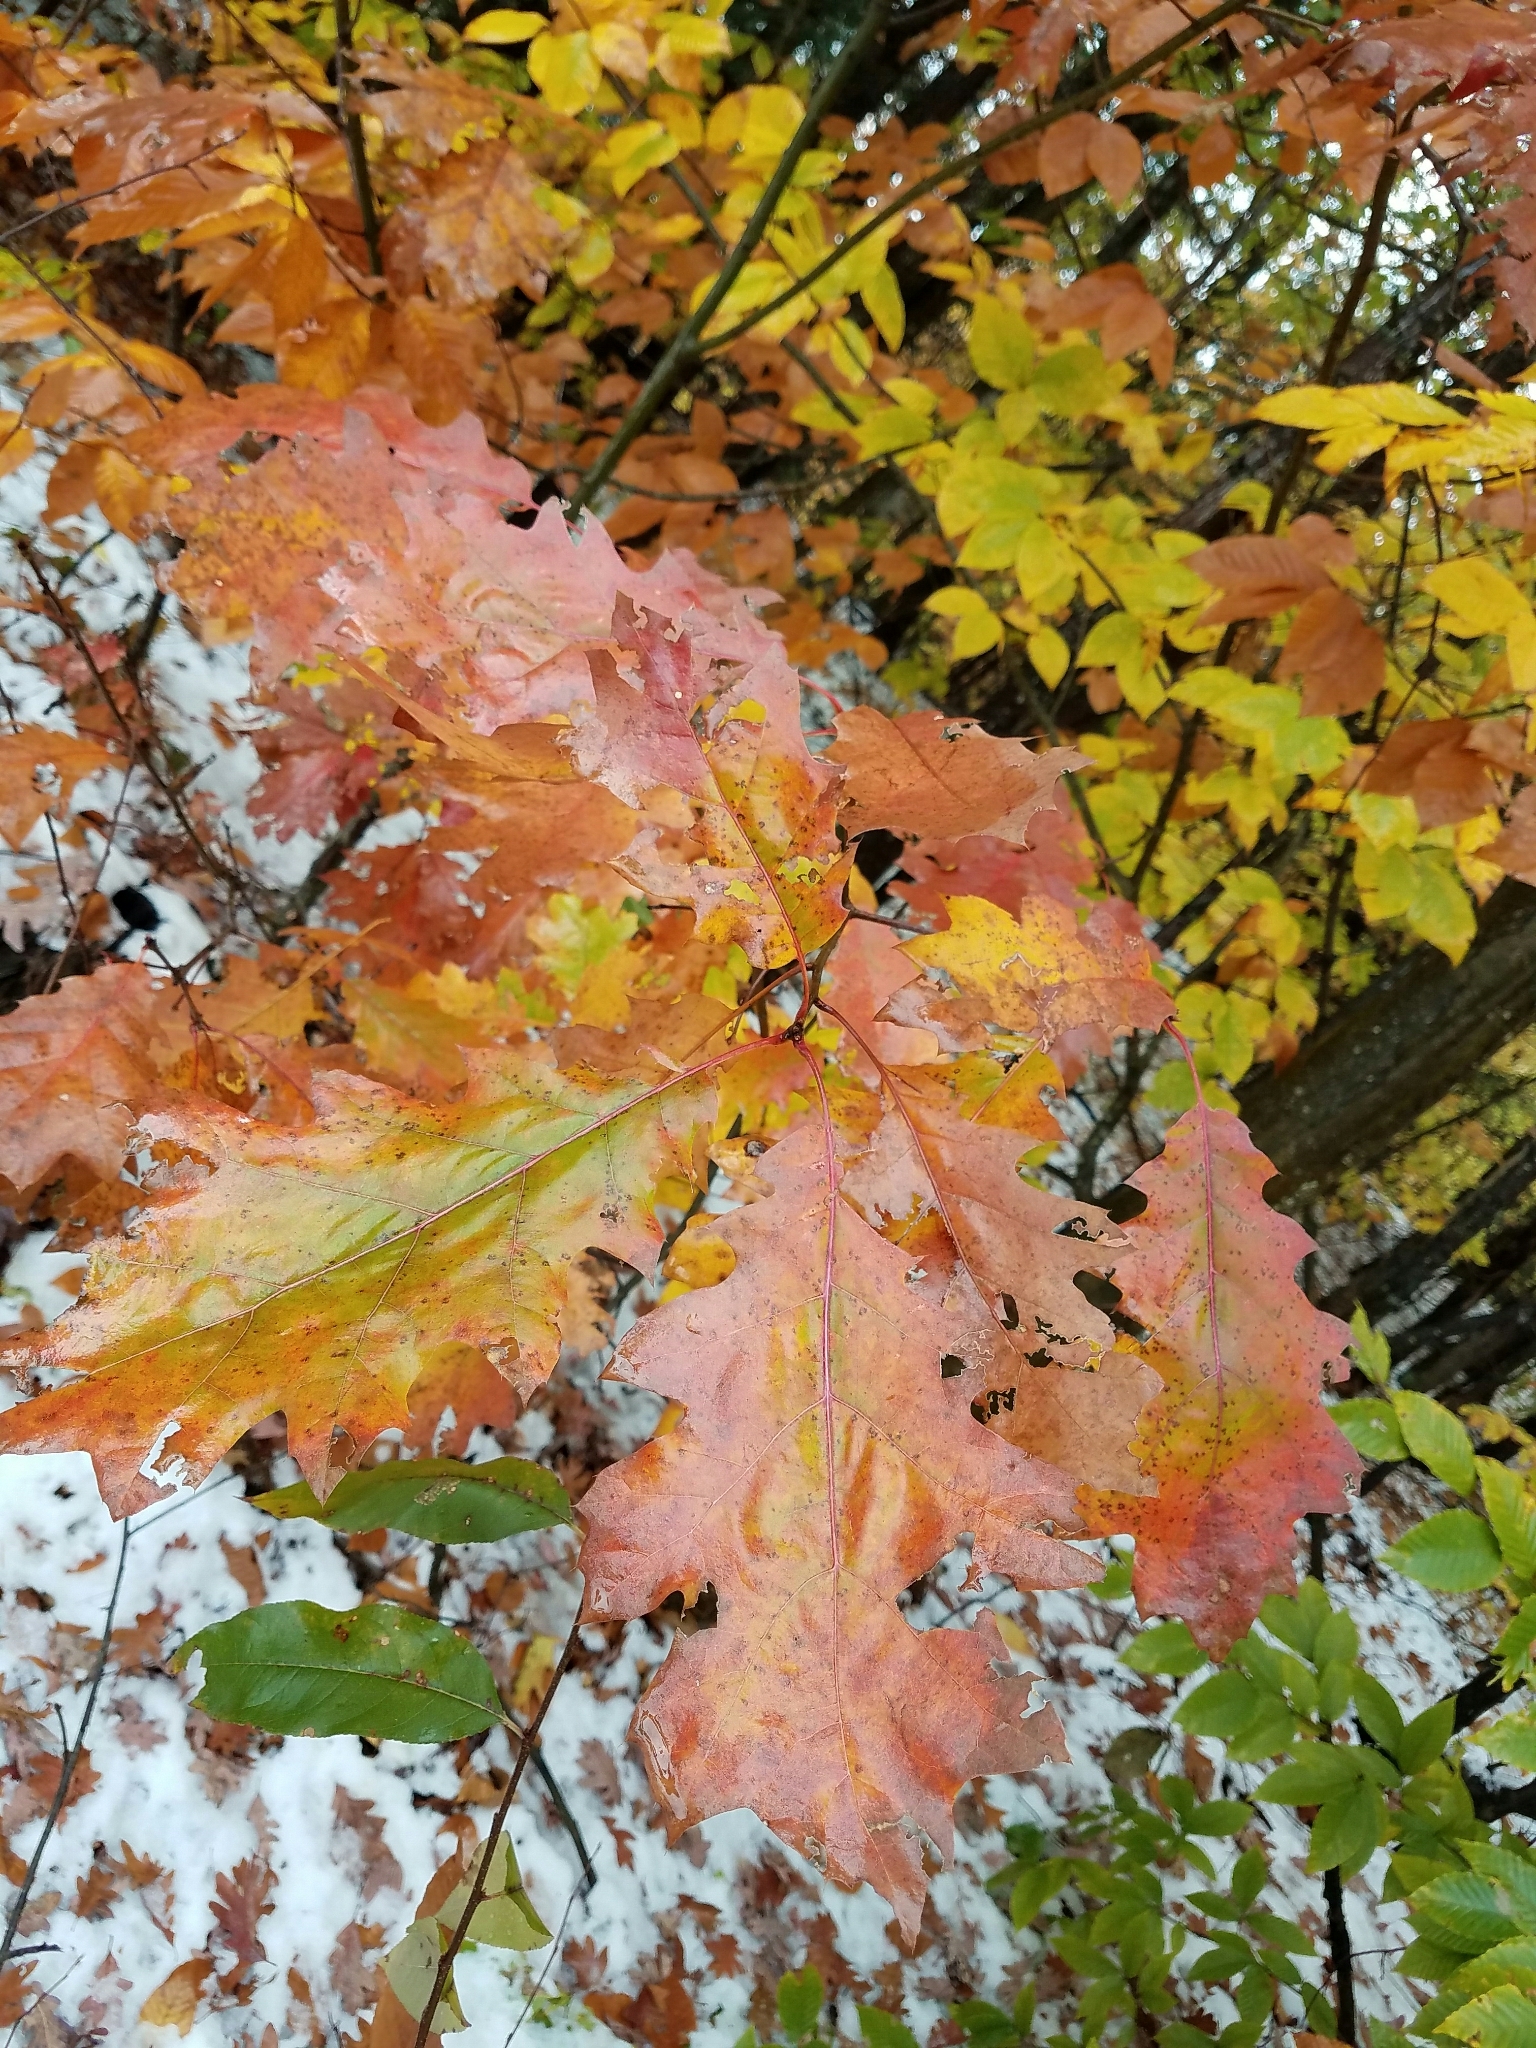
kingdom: Plantae
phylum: Tracheophyta
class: Magnoliopsida
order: Fagales
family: Fagaceae
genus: Quercus
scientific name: Quercus rubra
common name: Red oak
